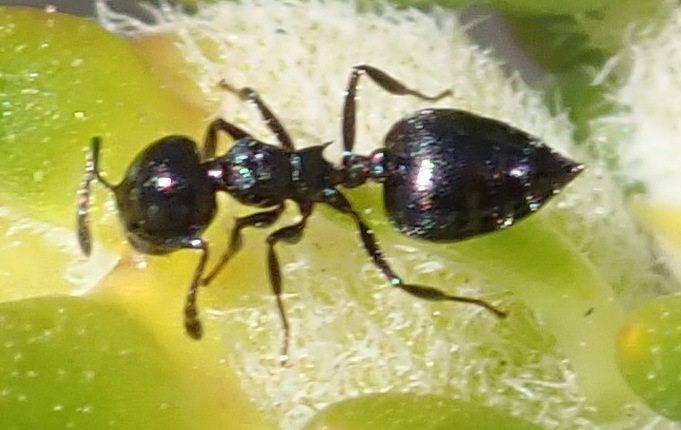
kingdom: Animalia
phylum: Arthropoda
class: Insecta
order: Hymenoptera
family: Formicidae
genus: Crematogaster
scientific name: Crematogaster peringueyi
